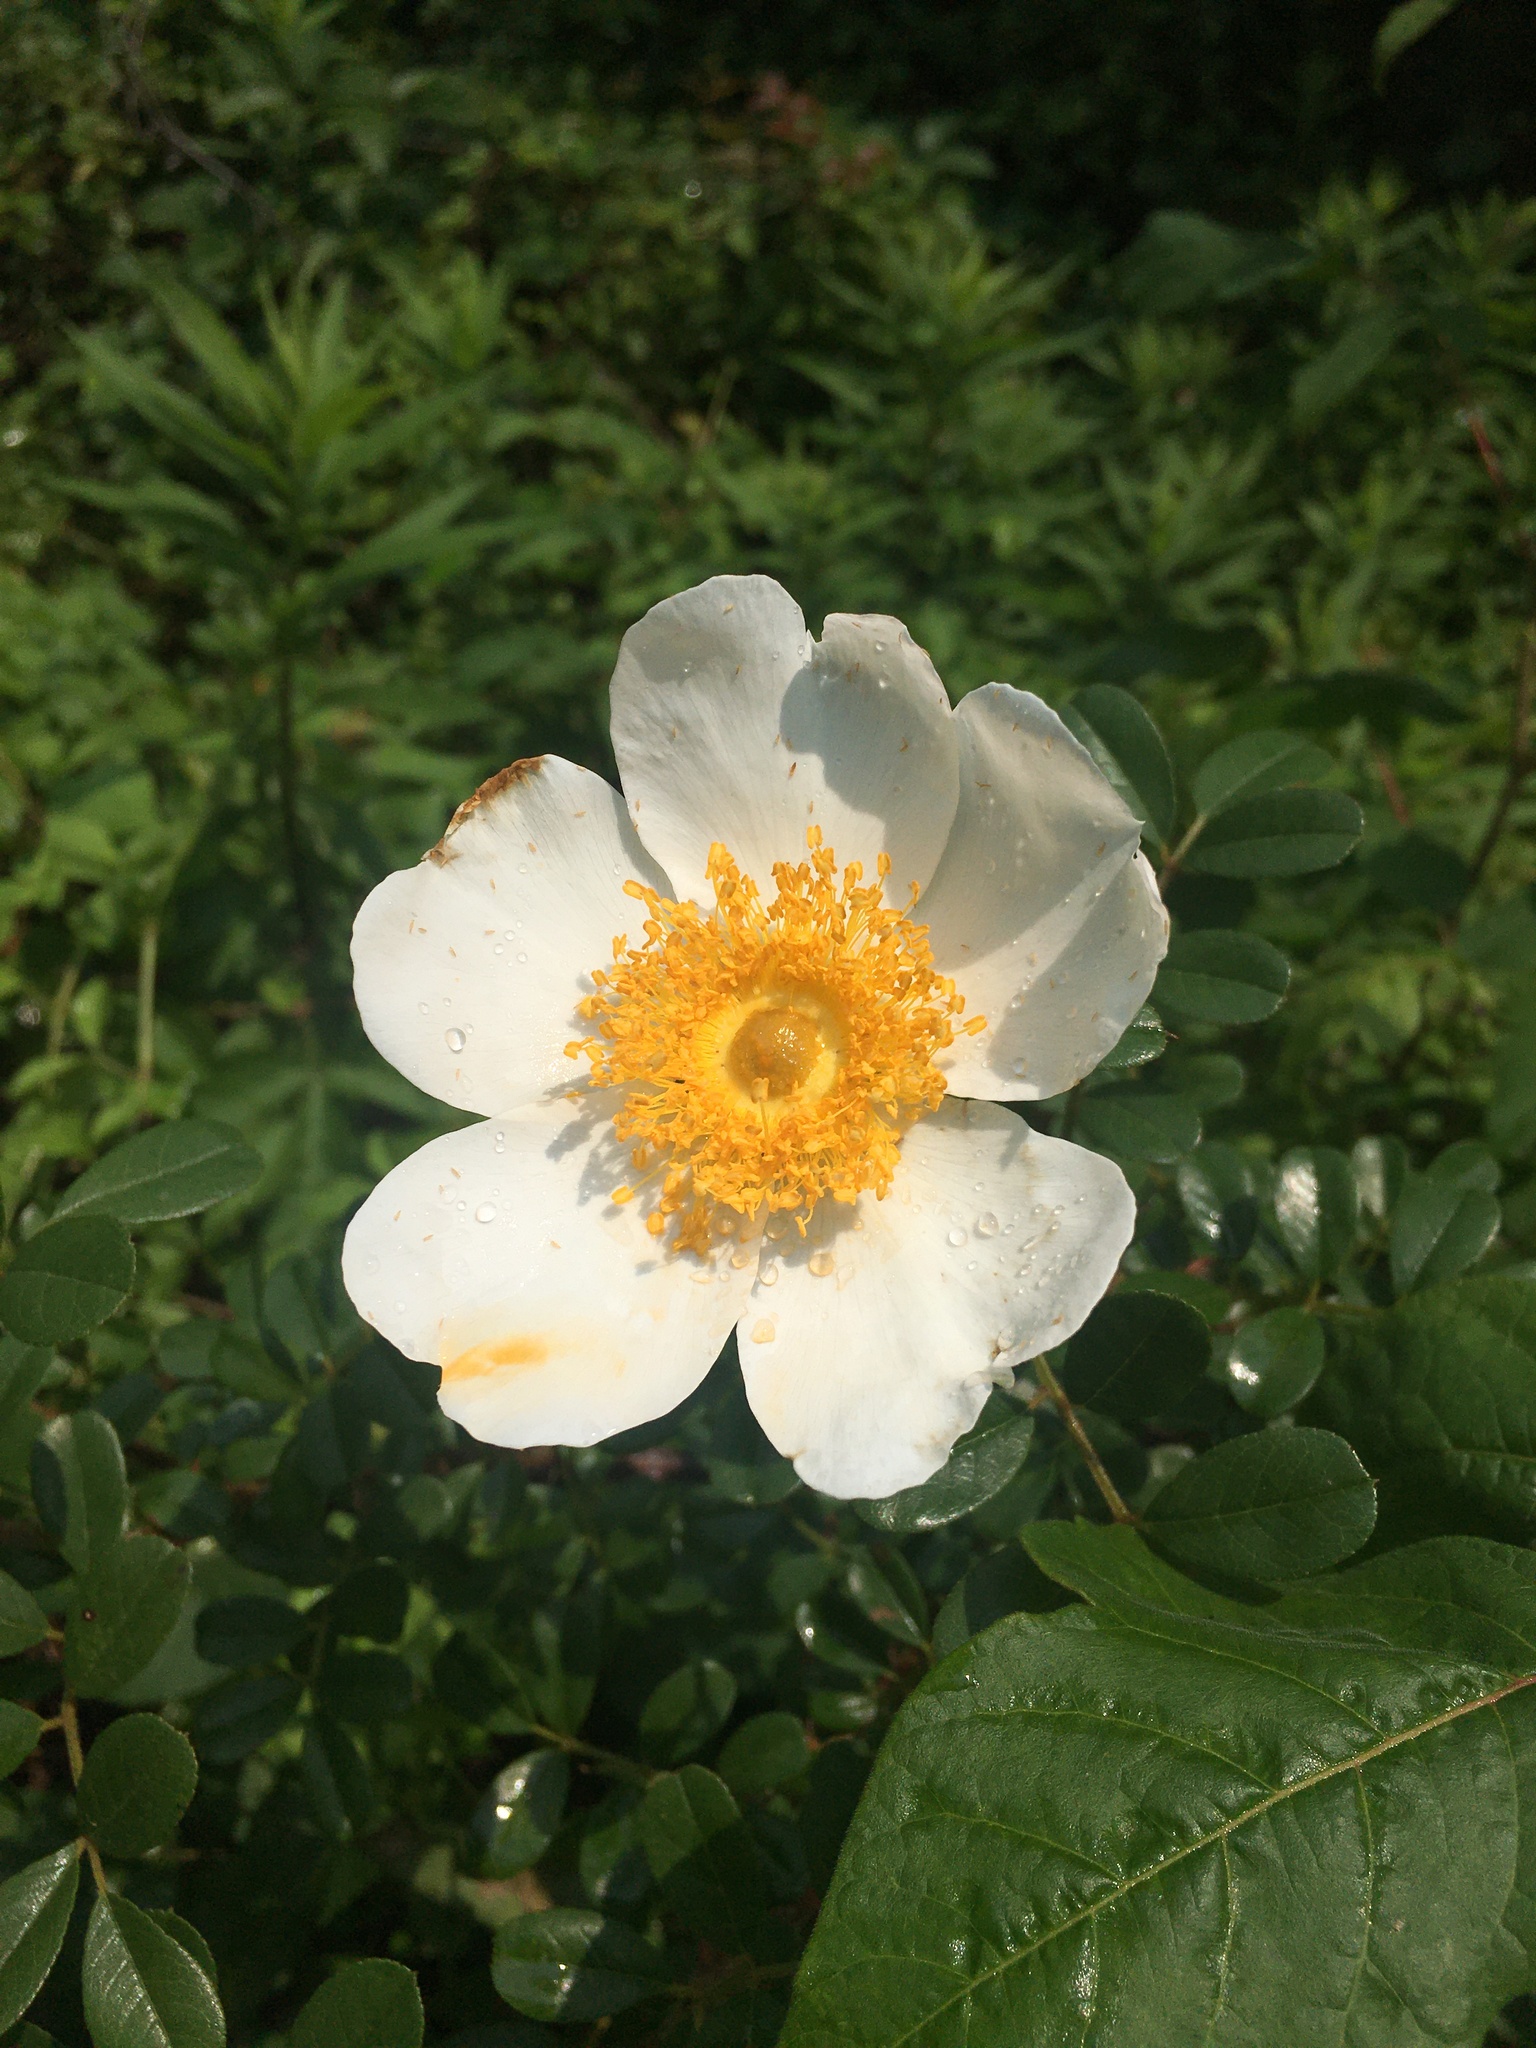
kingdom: Plantae
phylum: Tracheophyta
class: Magnoliopsida
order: Rosales
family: Rosaceae
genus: Rosa
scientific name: Rosa bracteata
